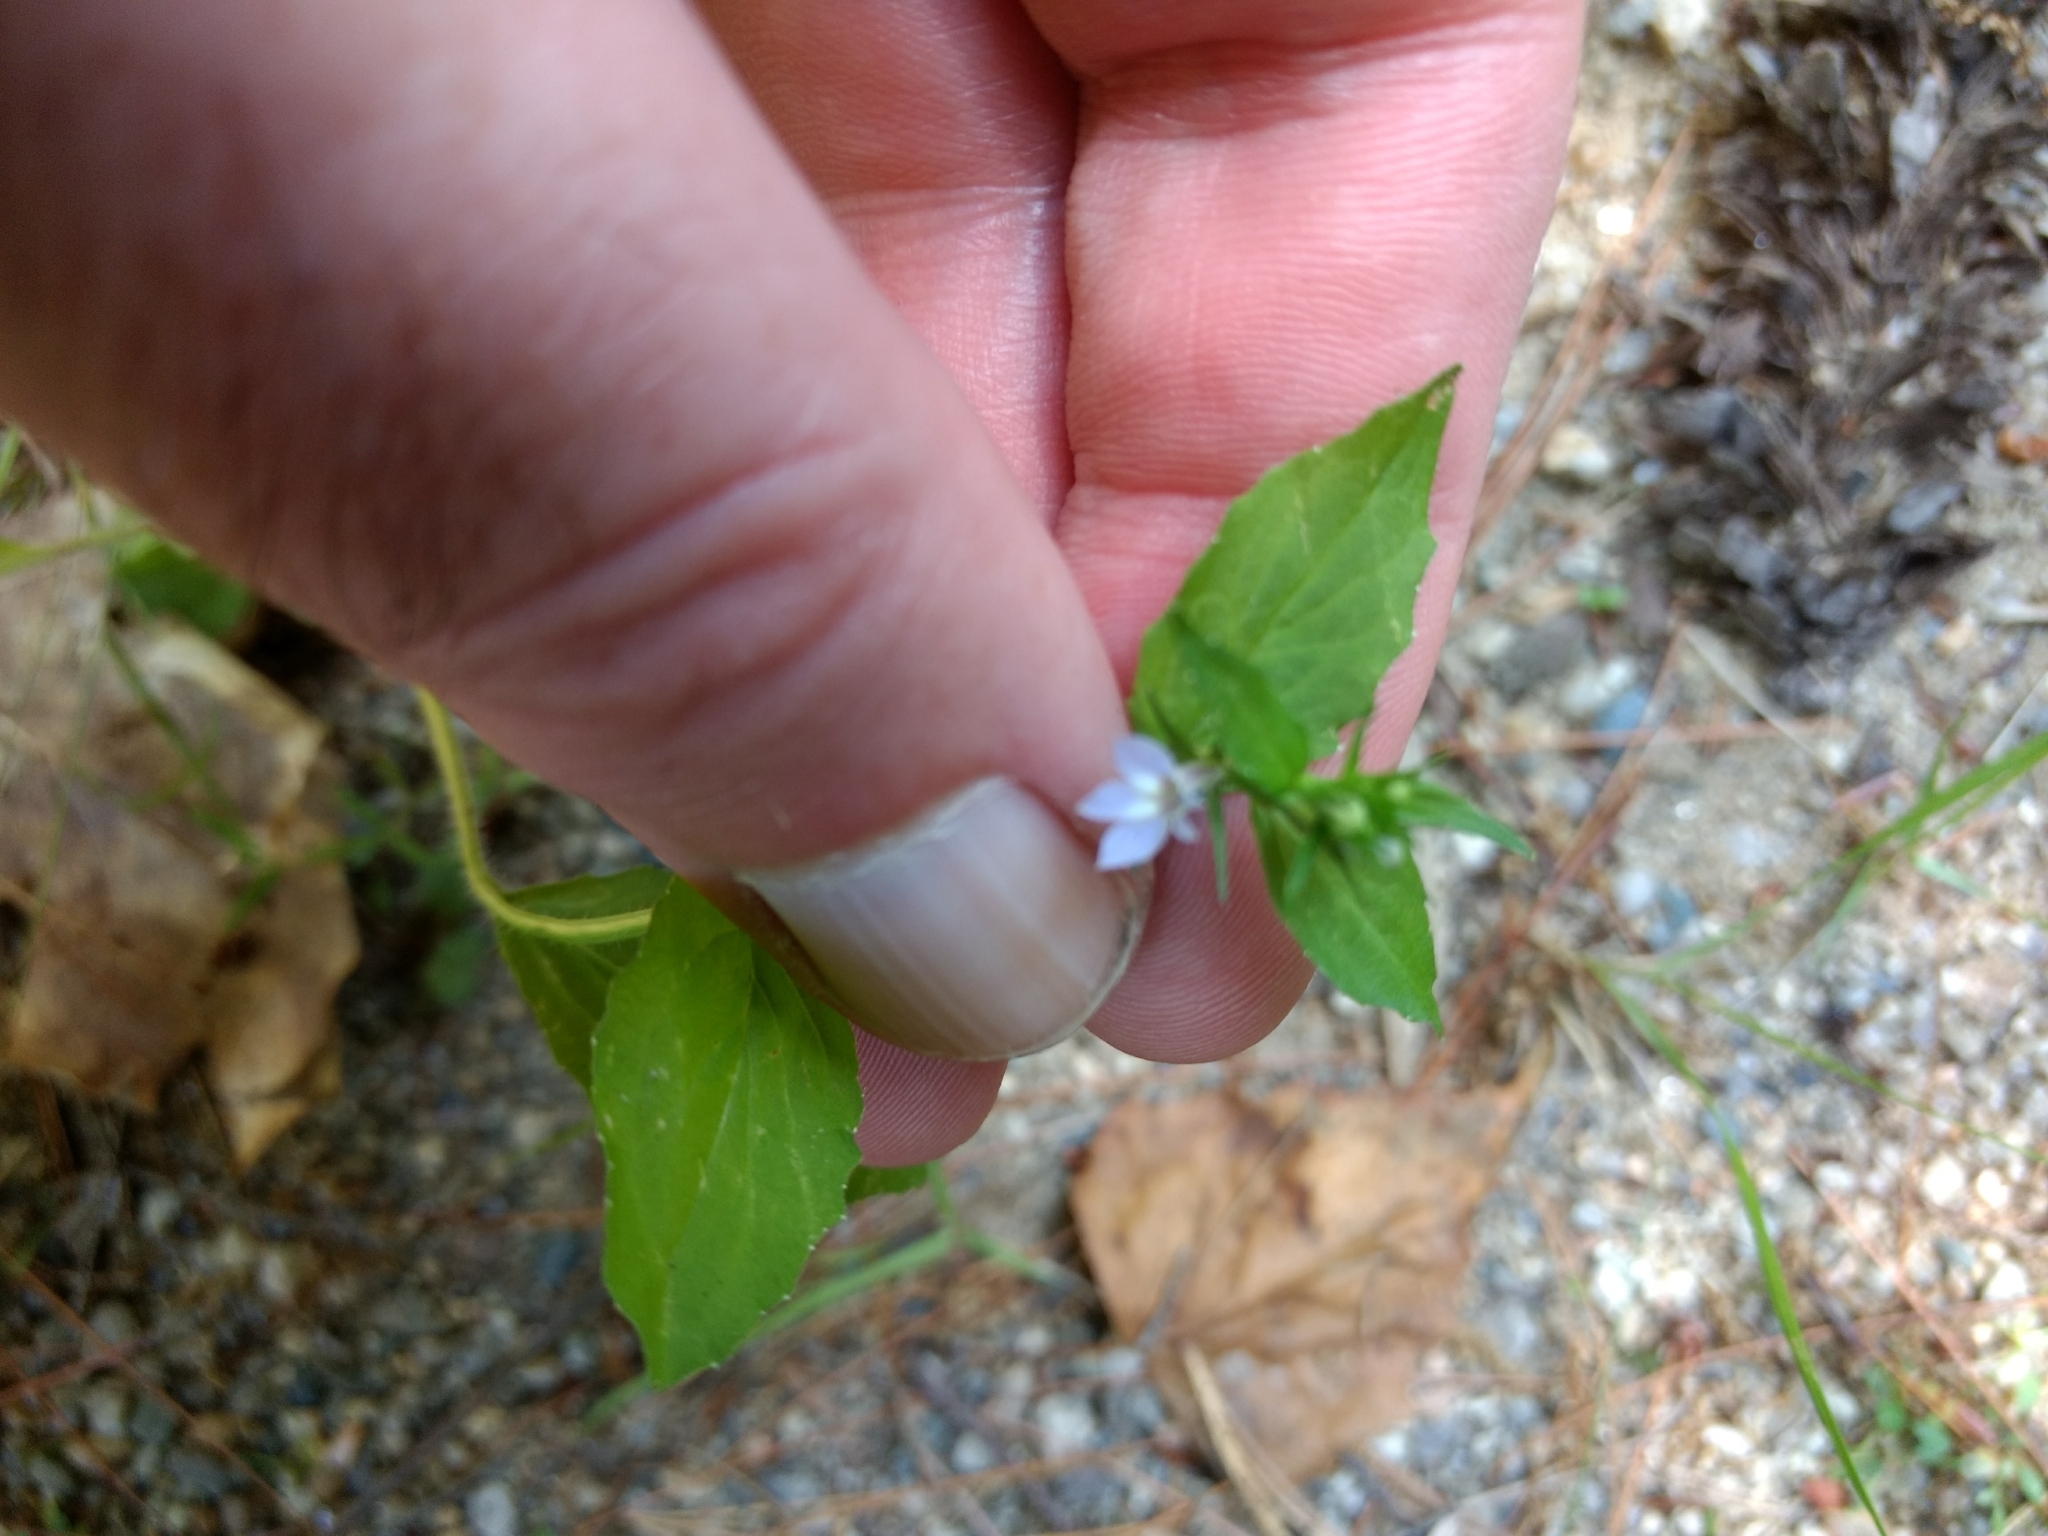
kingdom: Plantae
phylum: Tracheophyta
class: Magnoliopsida
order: Asterales
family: Campanulaceae
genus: Lobelia
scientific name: Lobelia inflata
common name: Indian tobacco
